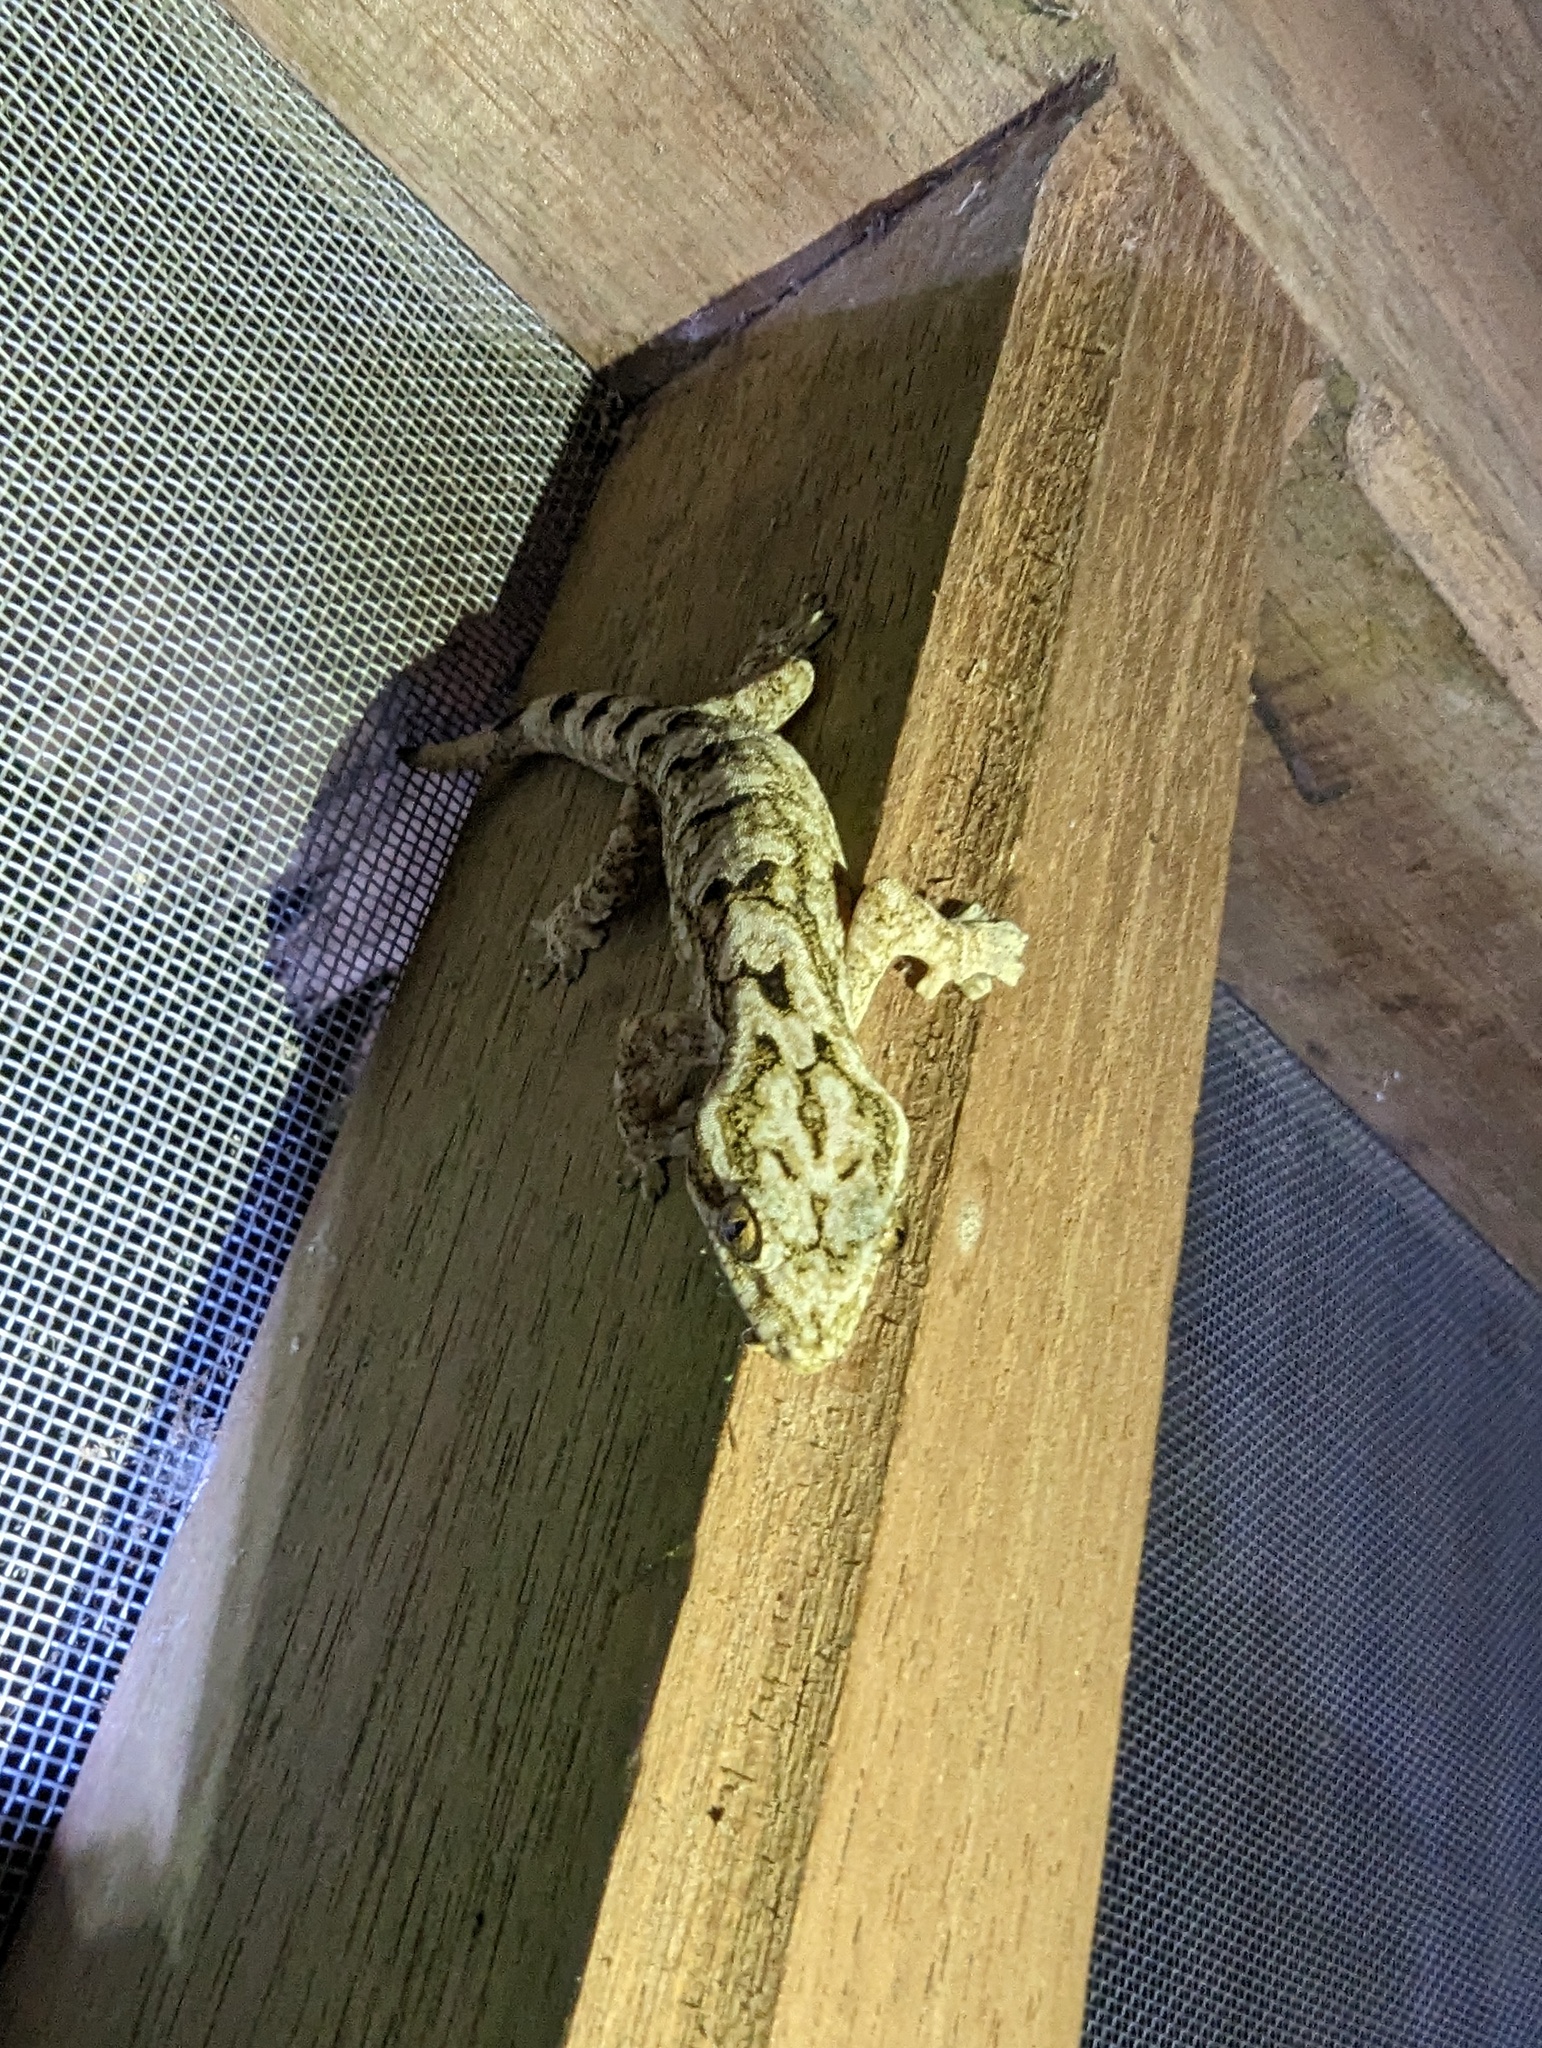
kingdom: Animalia
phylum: Chordata
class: Squamata
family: Phyllodactylidae
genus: Thecadactylus
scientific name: Thecadactylus solimoensis
